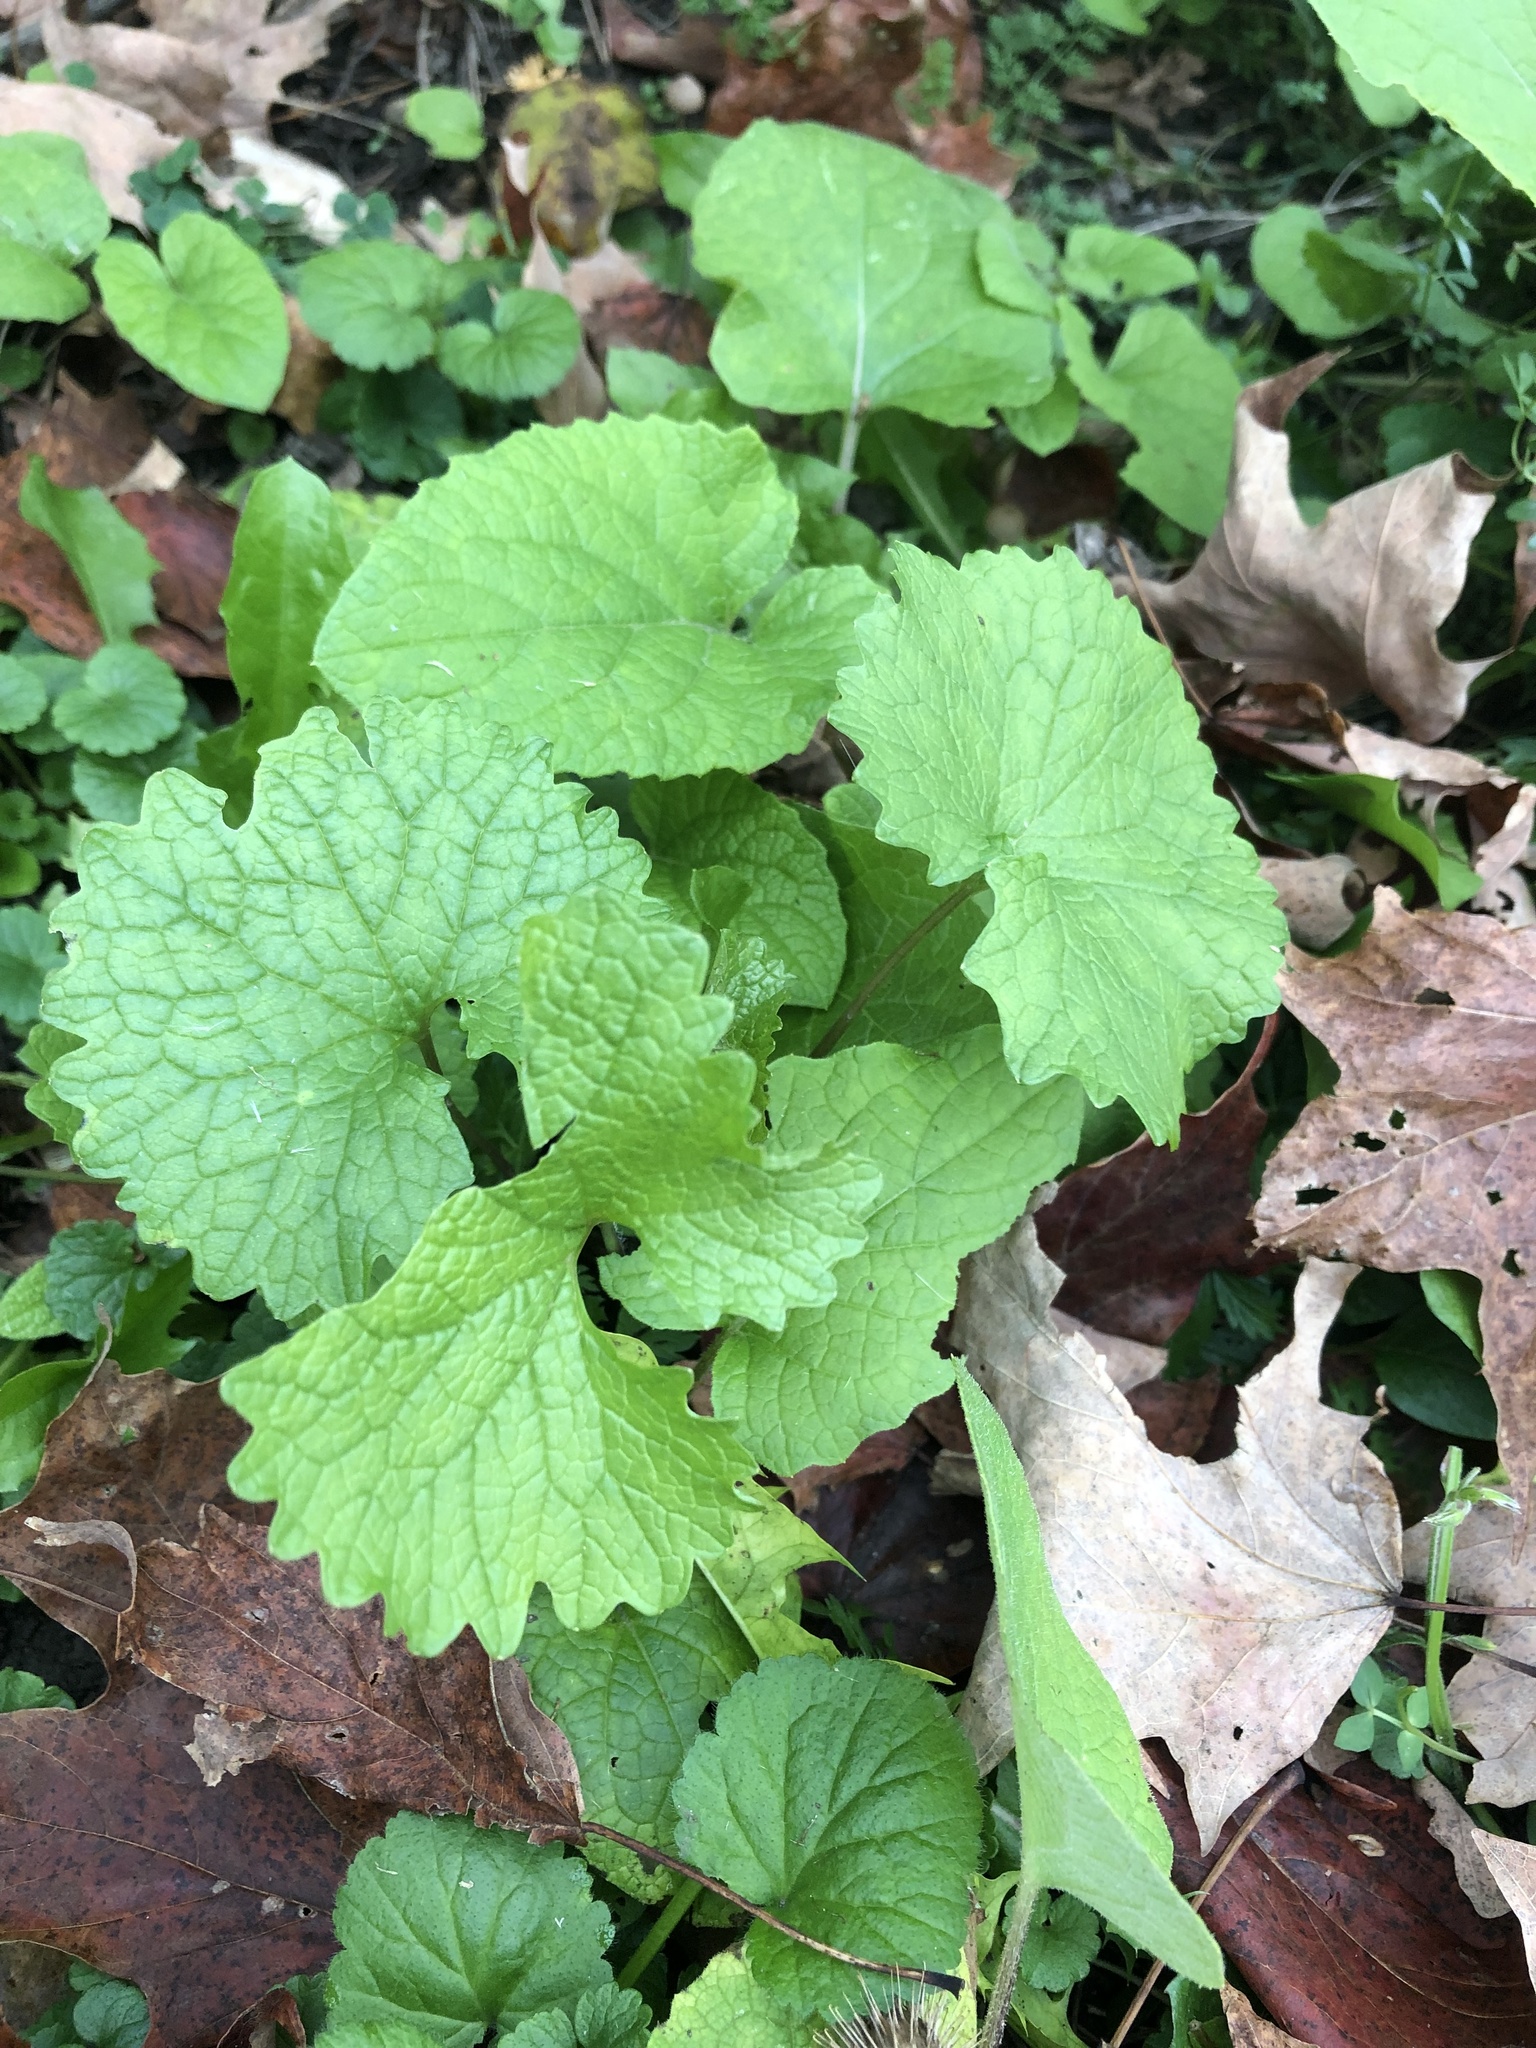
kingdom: Plantae
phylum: Tracheophyta
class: Magnoliopsida
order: Brassicales
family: Brassicaceae
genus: Alliaria
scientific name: Alliaria petiolata
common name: Garlic mustard
